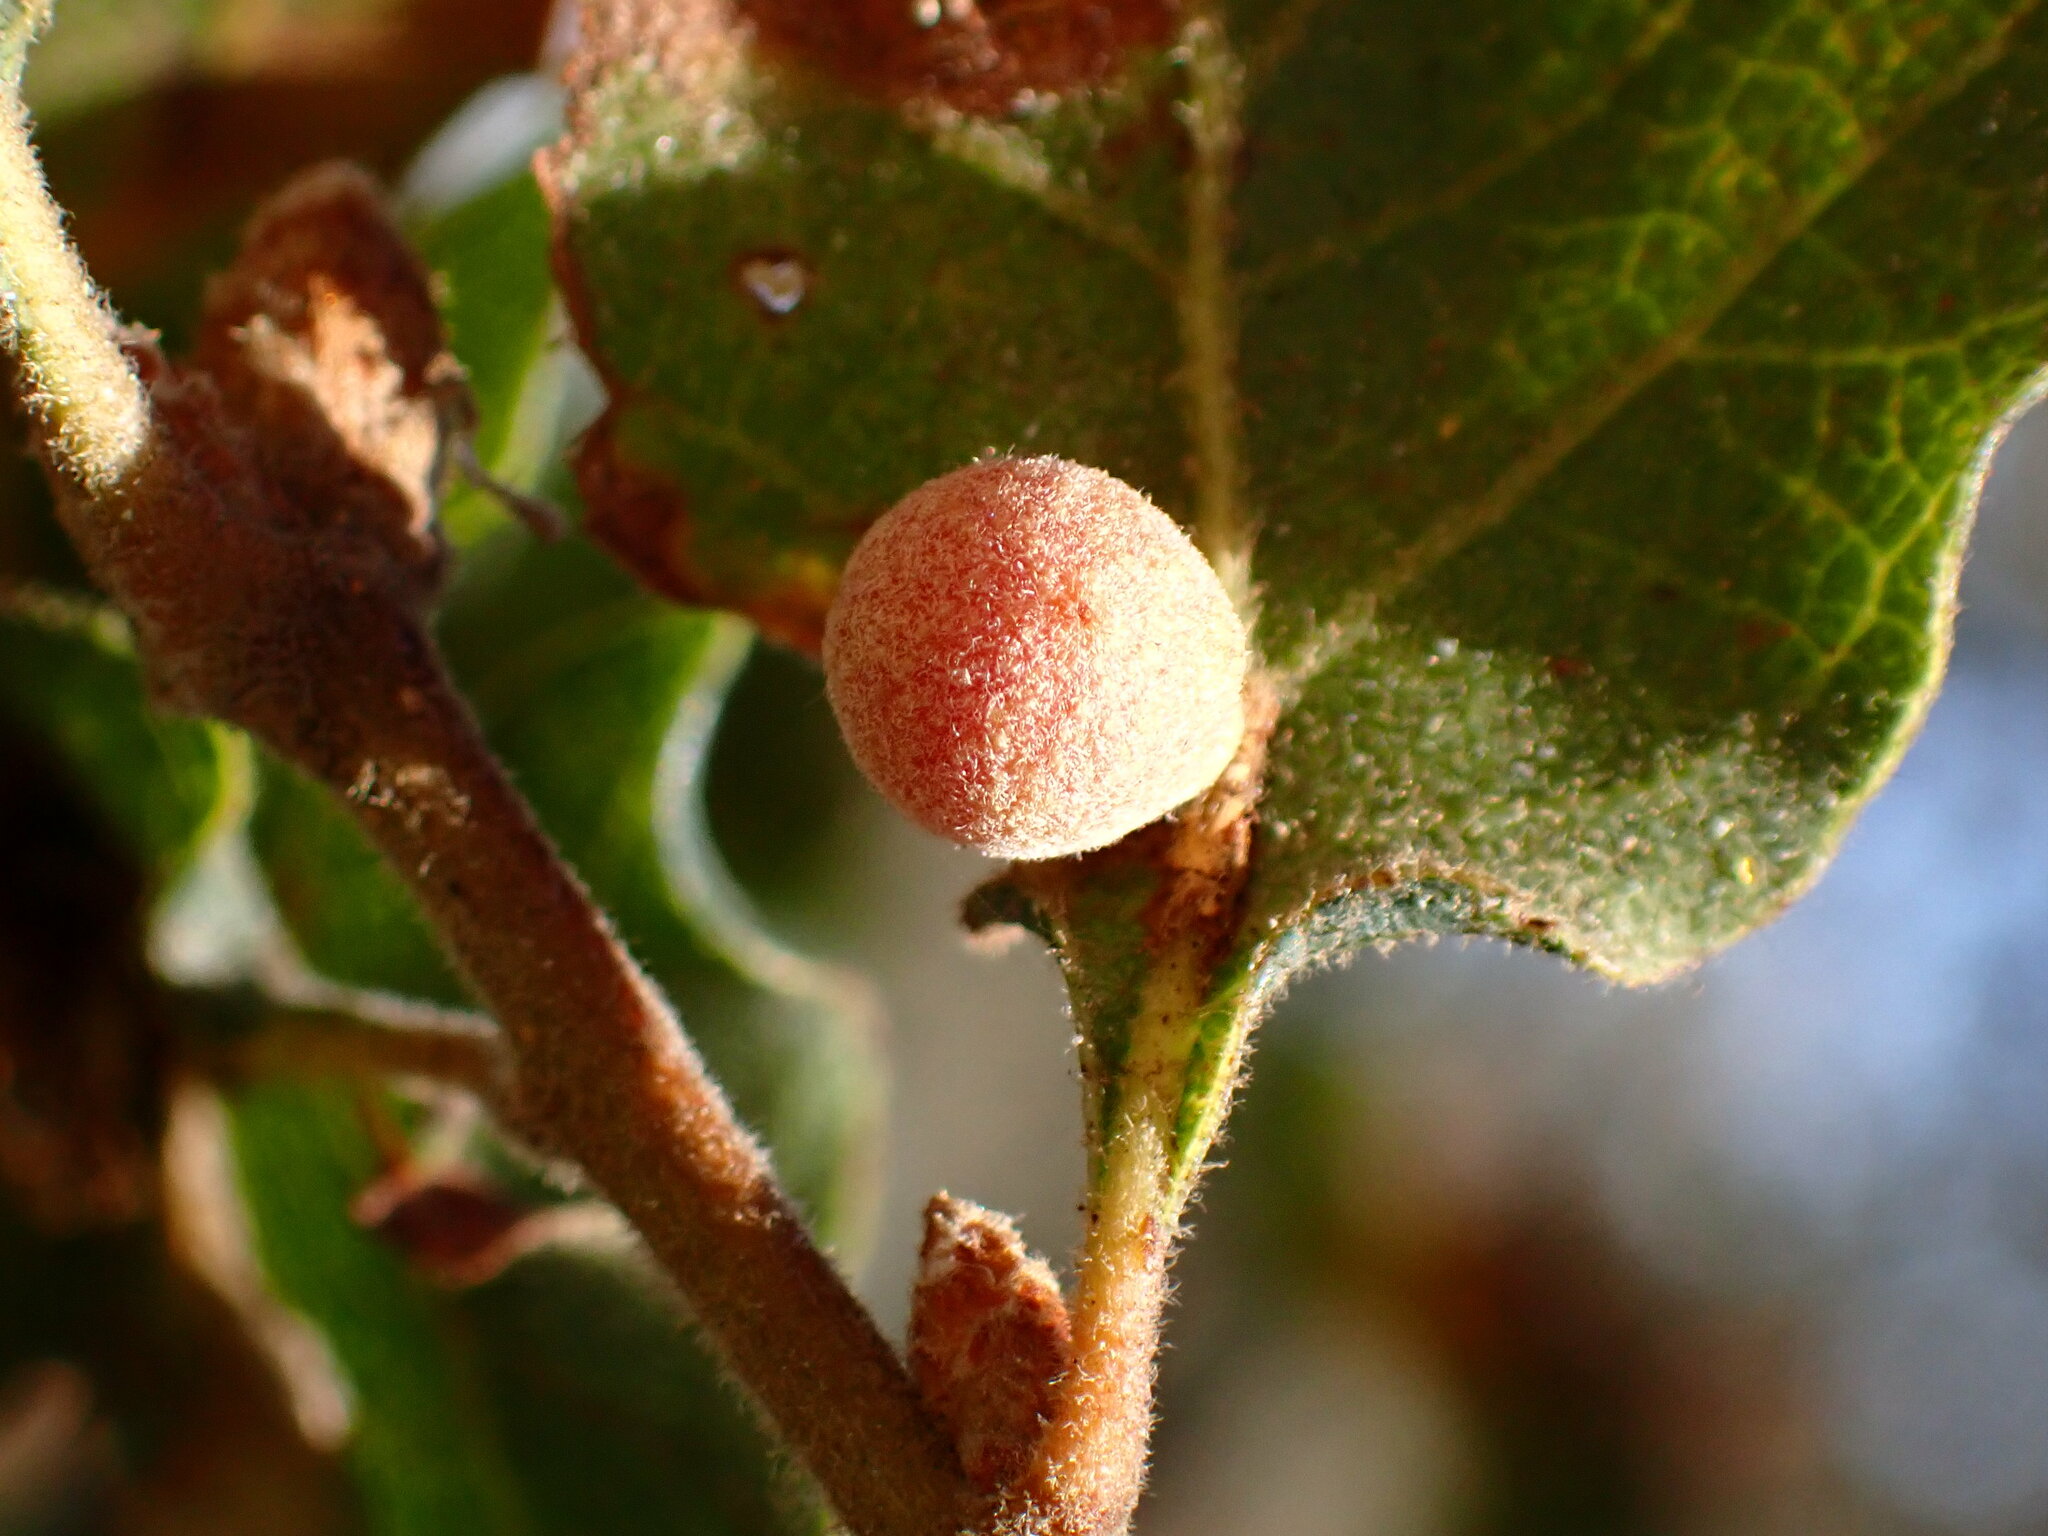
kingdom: Animalia
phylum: Arthropoda
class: Insecta
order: Hymenoptera
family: Cynipidae
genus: Andricus
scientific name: Andricus
